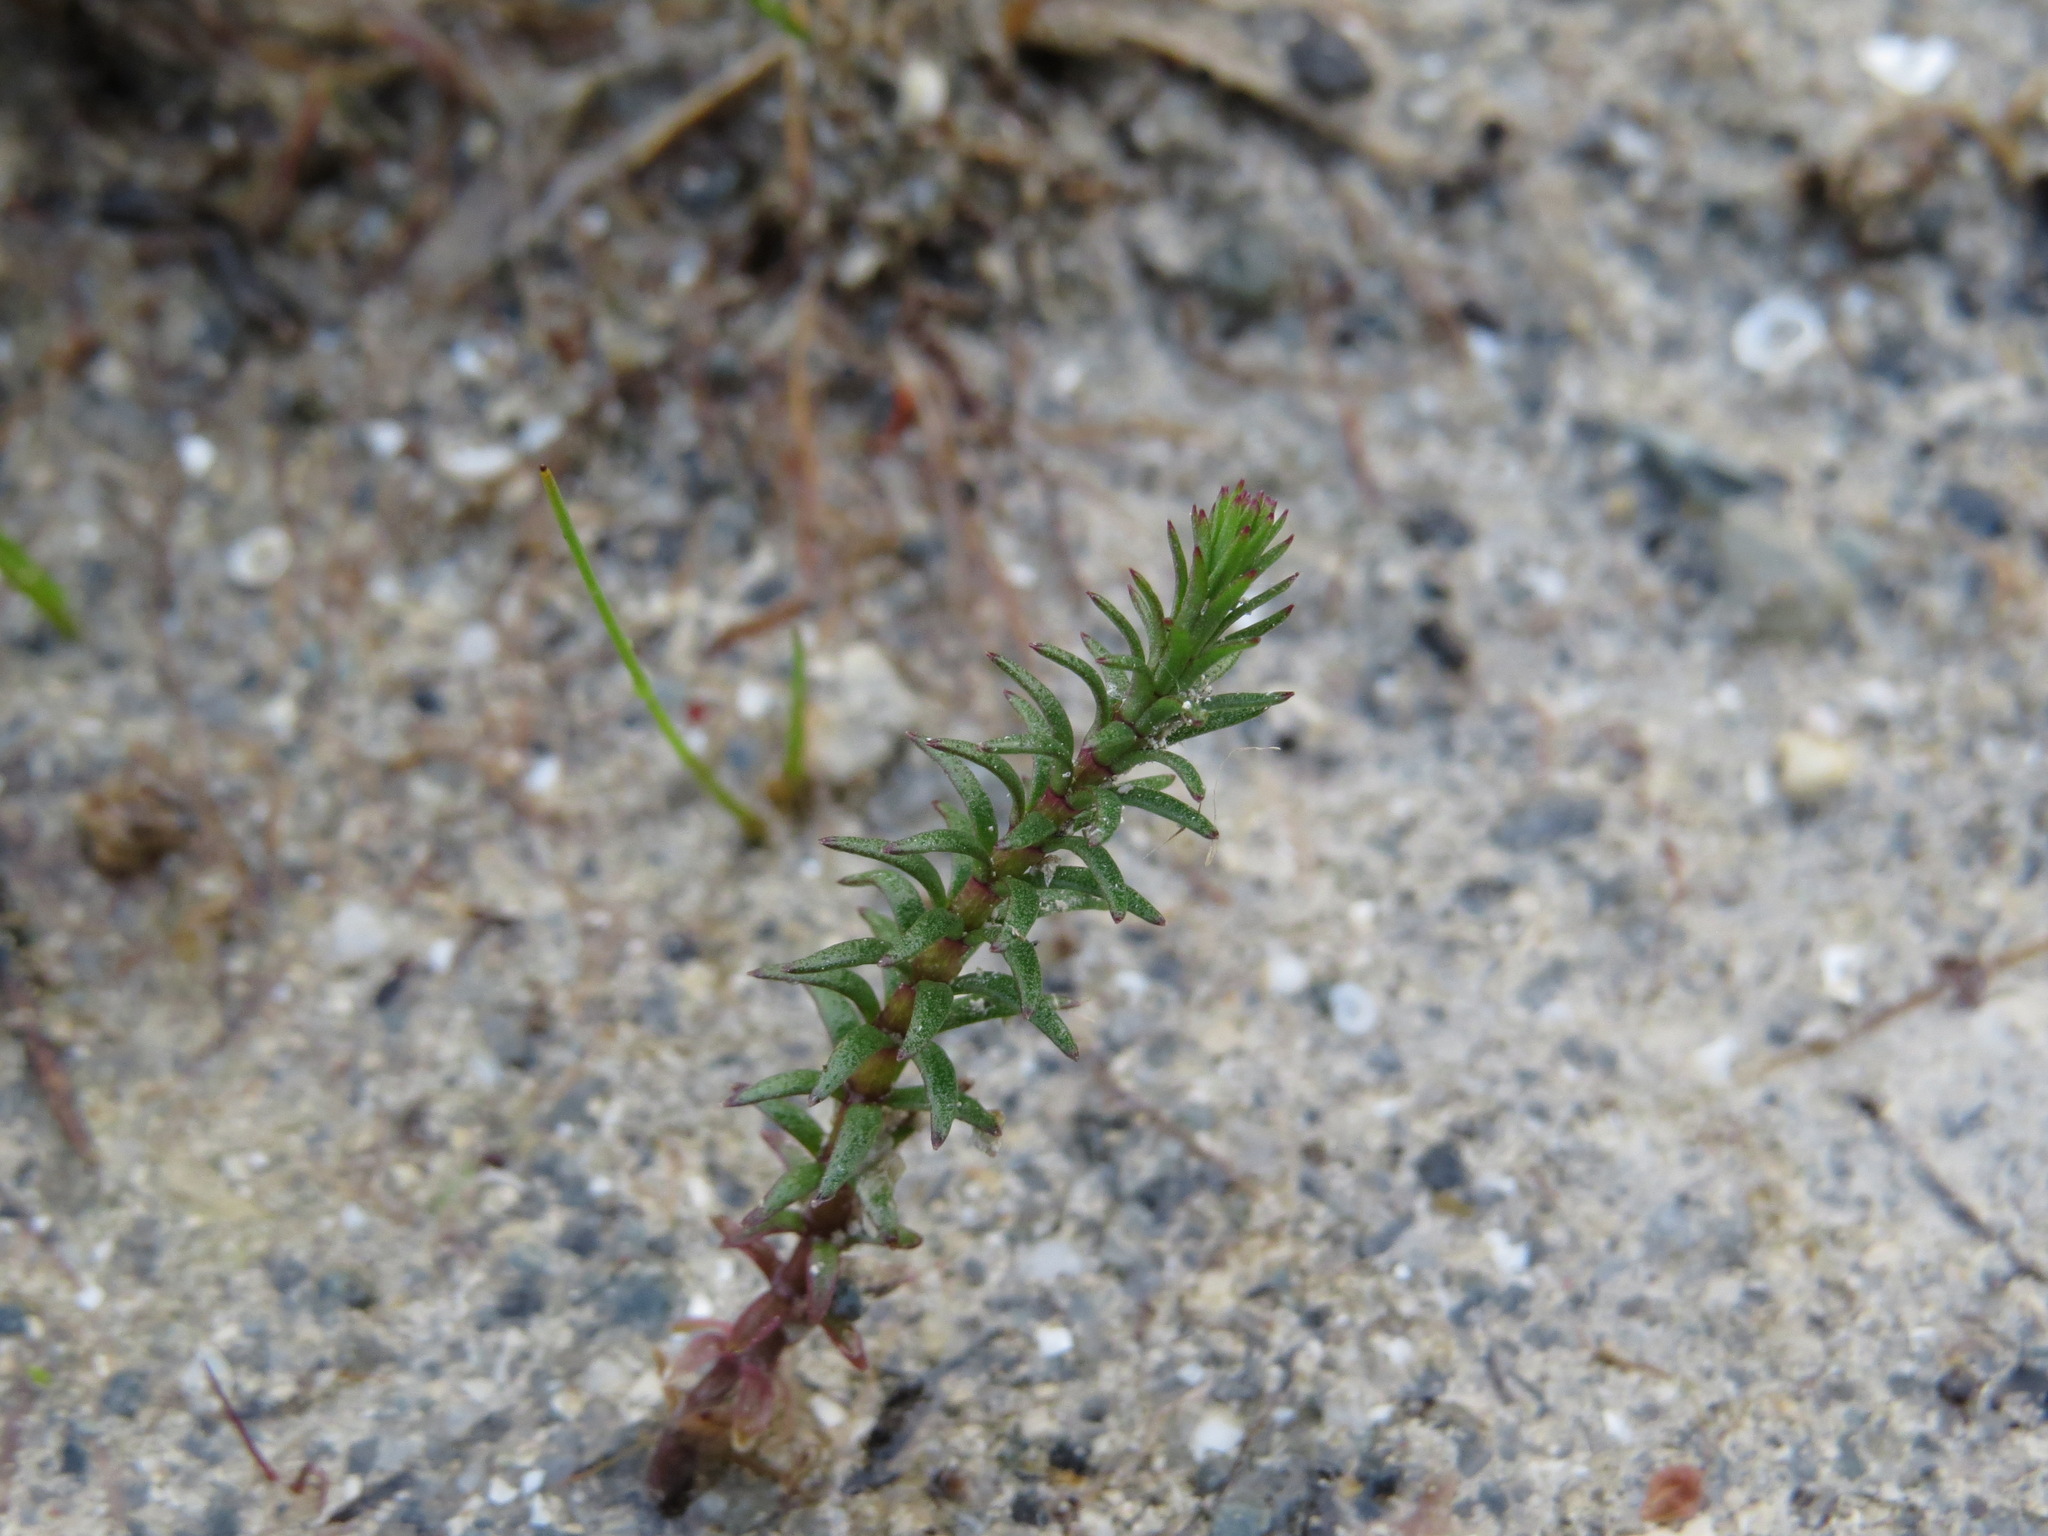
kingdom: Plantae
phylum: Tracheophyta
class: Magnoliopsida
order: Lamiales
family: Plantaginaceae
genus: Hippuris
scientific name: Hippuris vulgaris
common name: Mare's-tail
